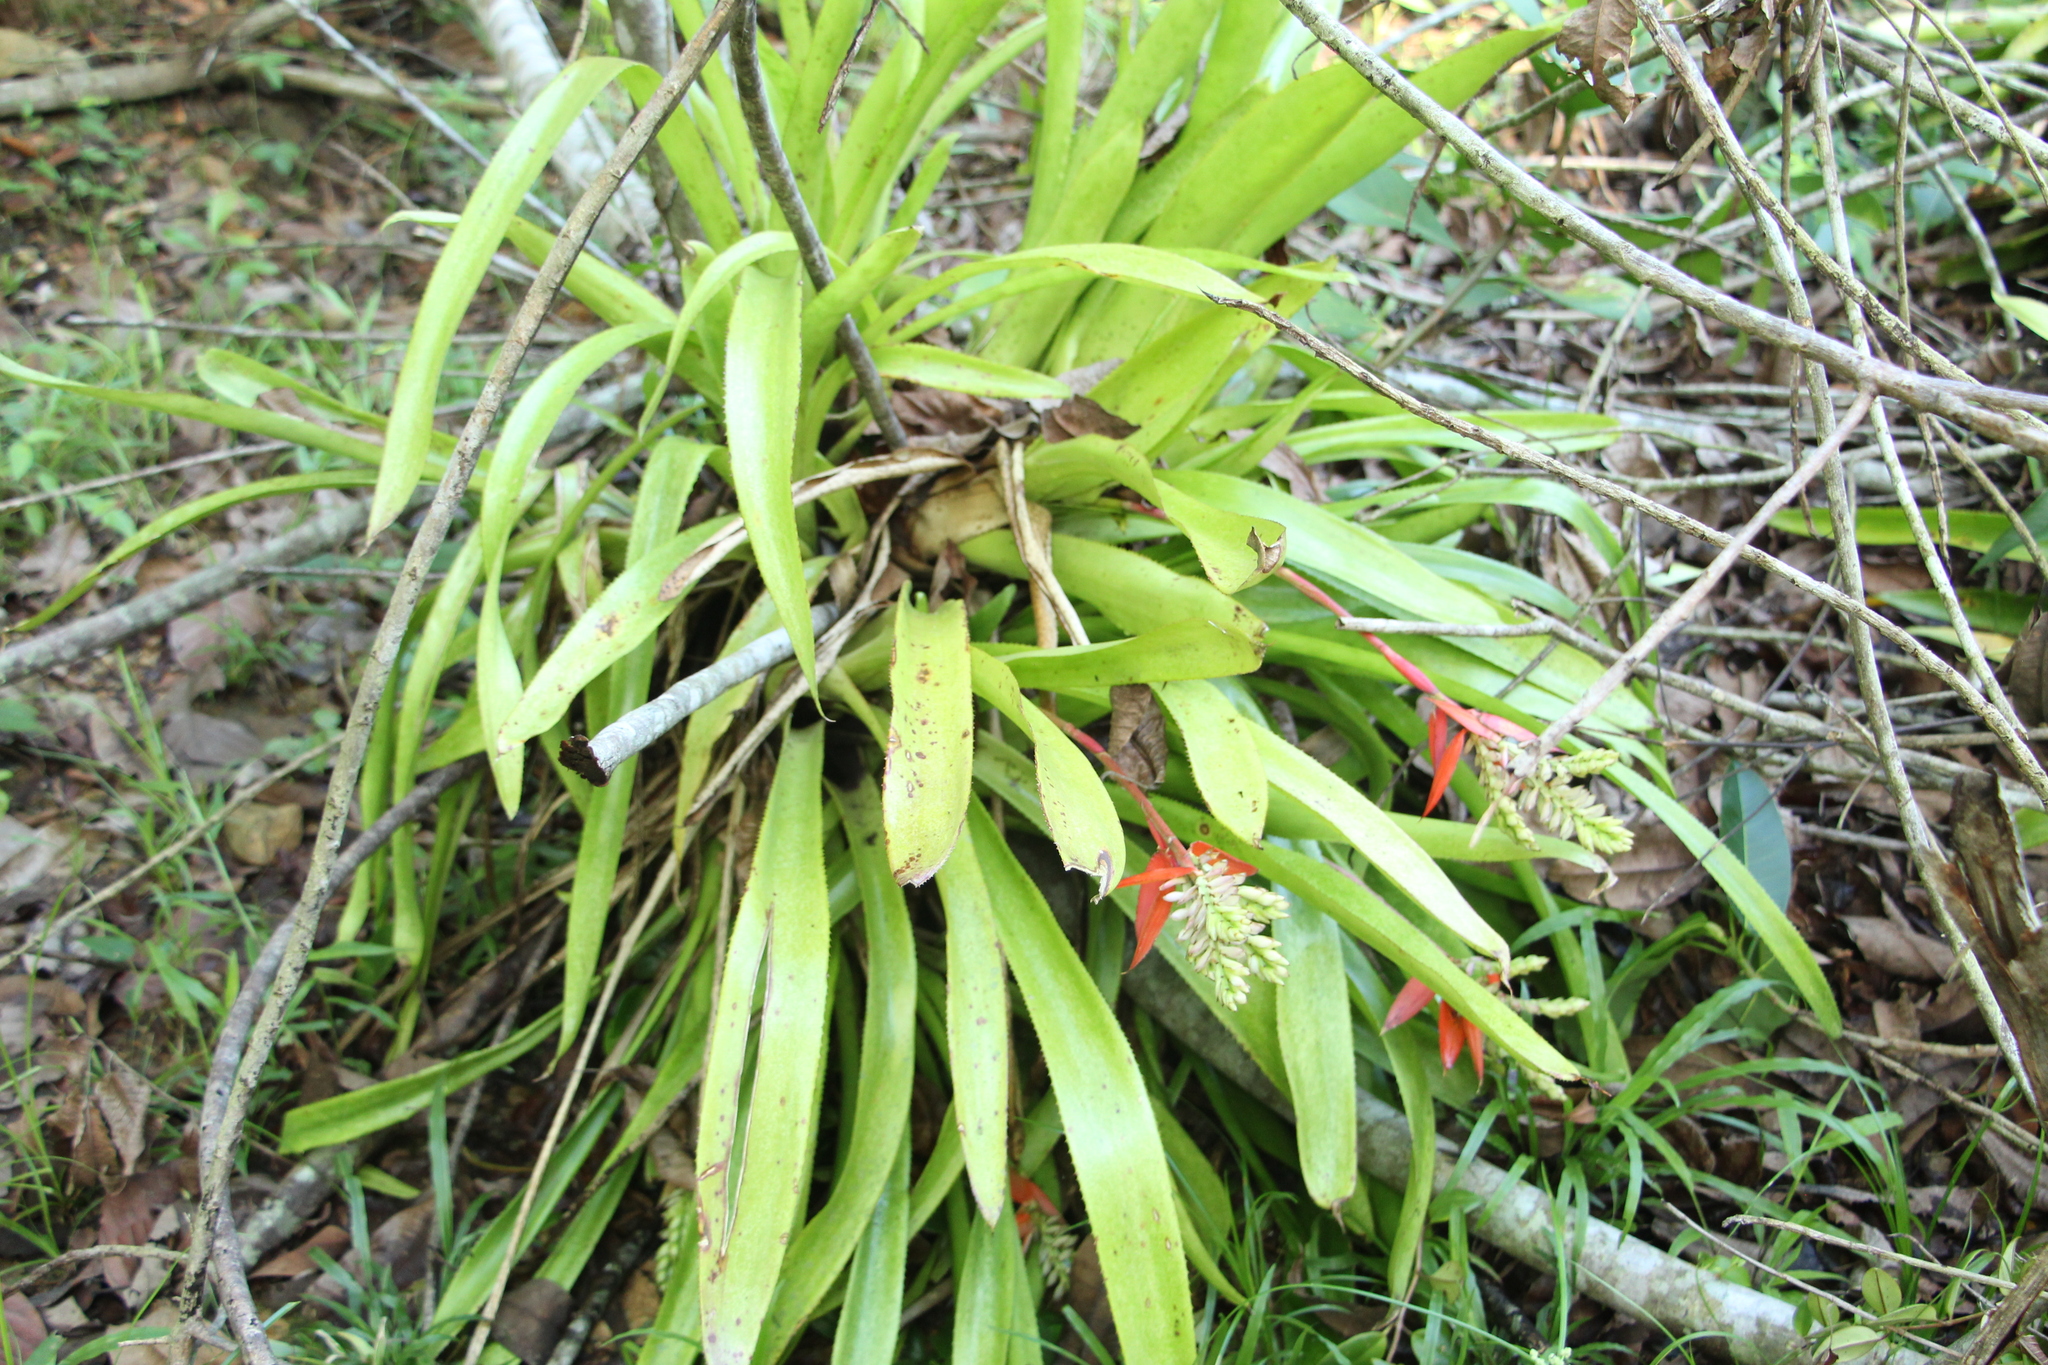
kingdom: Plantae
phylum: Tracheophyta
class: Liliopsida
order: Poales
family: Bromeliaceae
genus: Aechmea
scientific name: Aechmea tillandsioides
